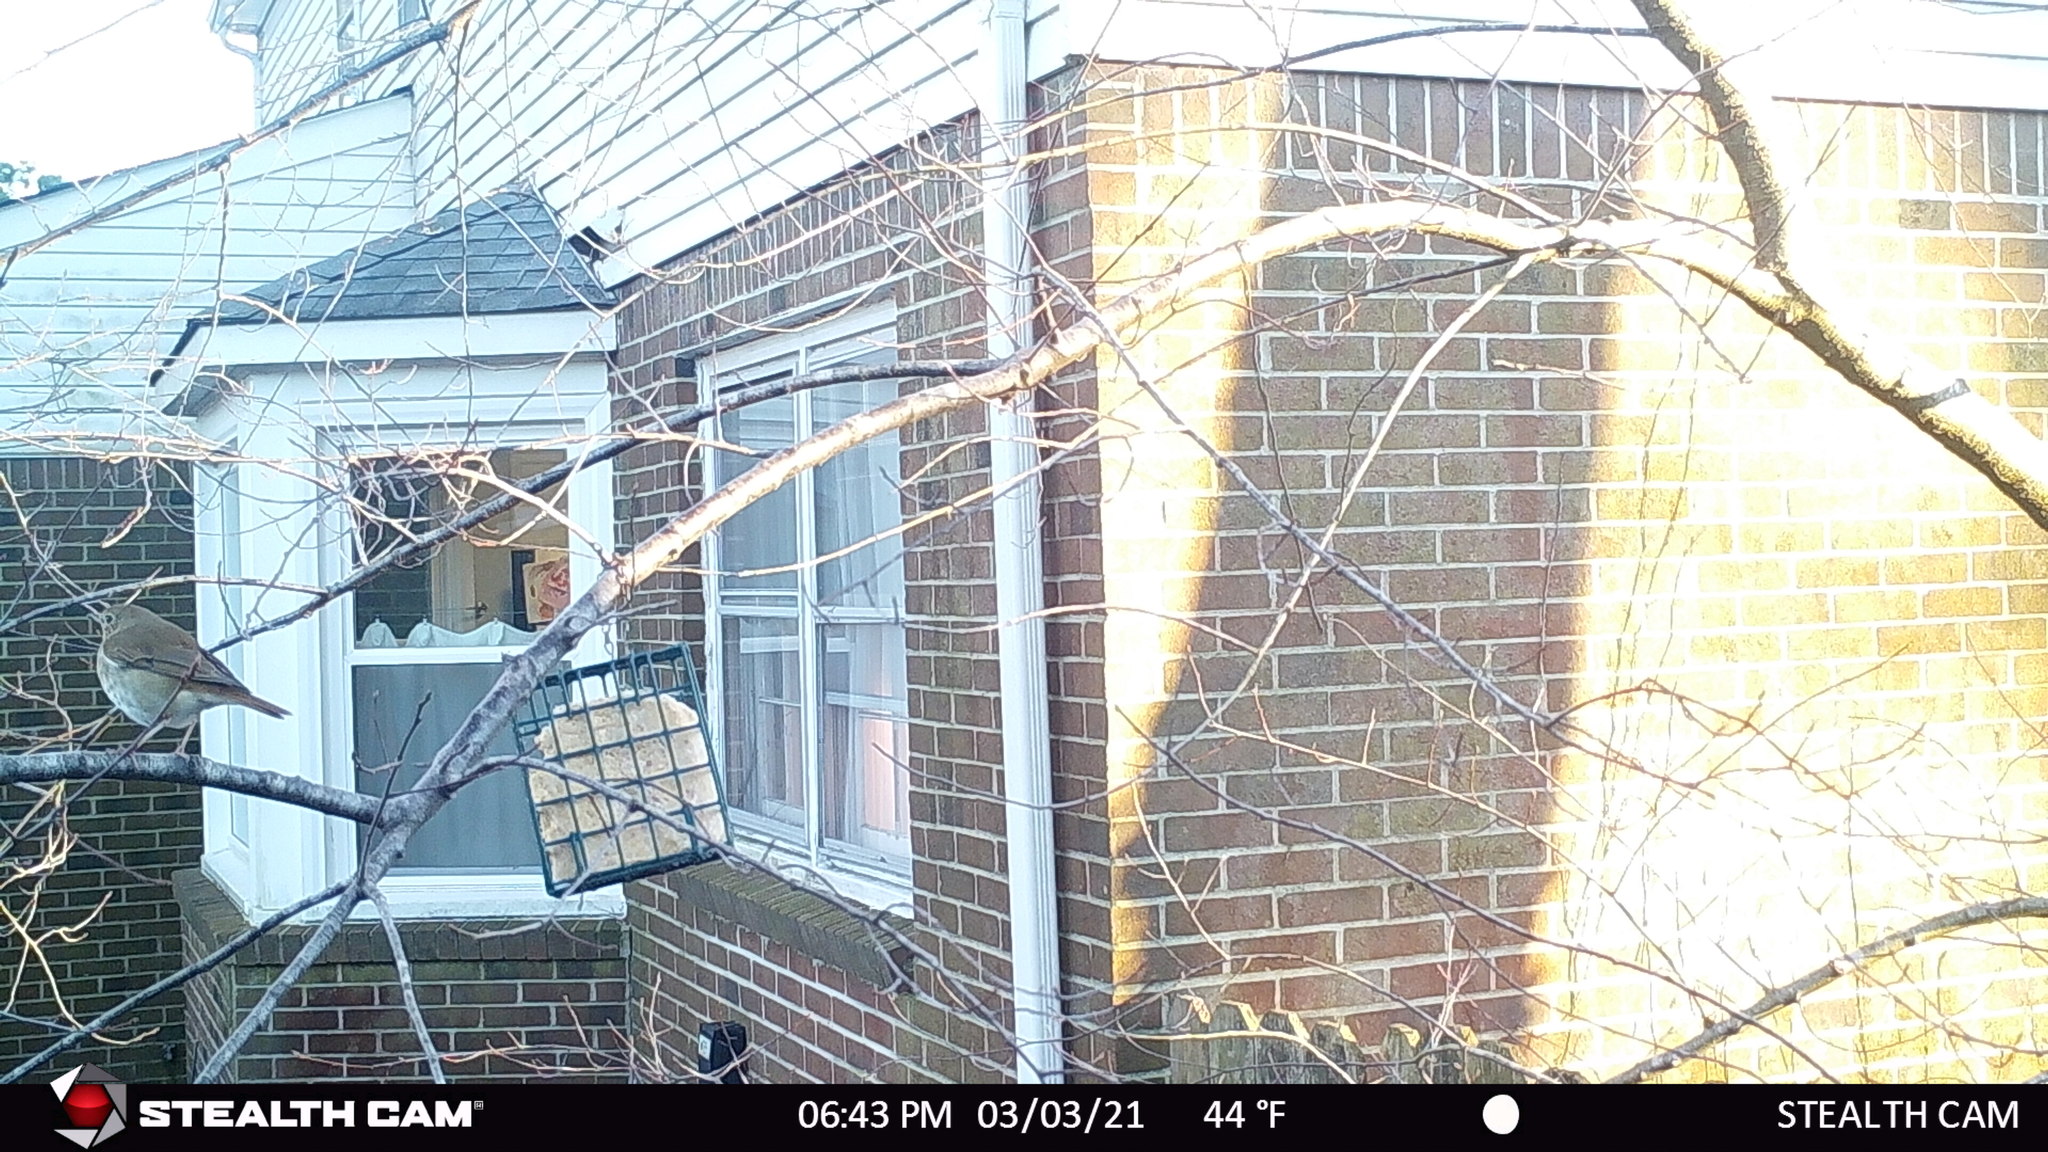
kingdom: Animalia
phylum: Chordata
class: Aves
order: Passeriformes
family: Turdidae
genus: Catharus
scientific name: Catharus guttatus
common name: Hermit thrush
